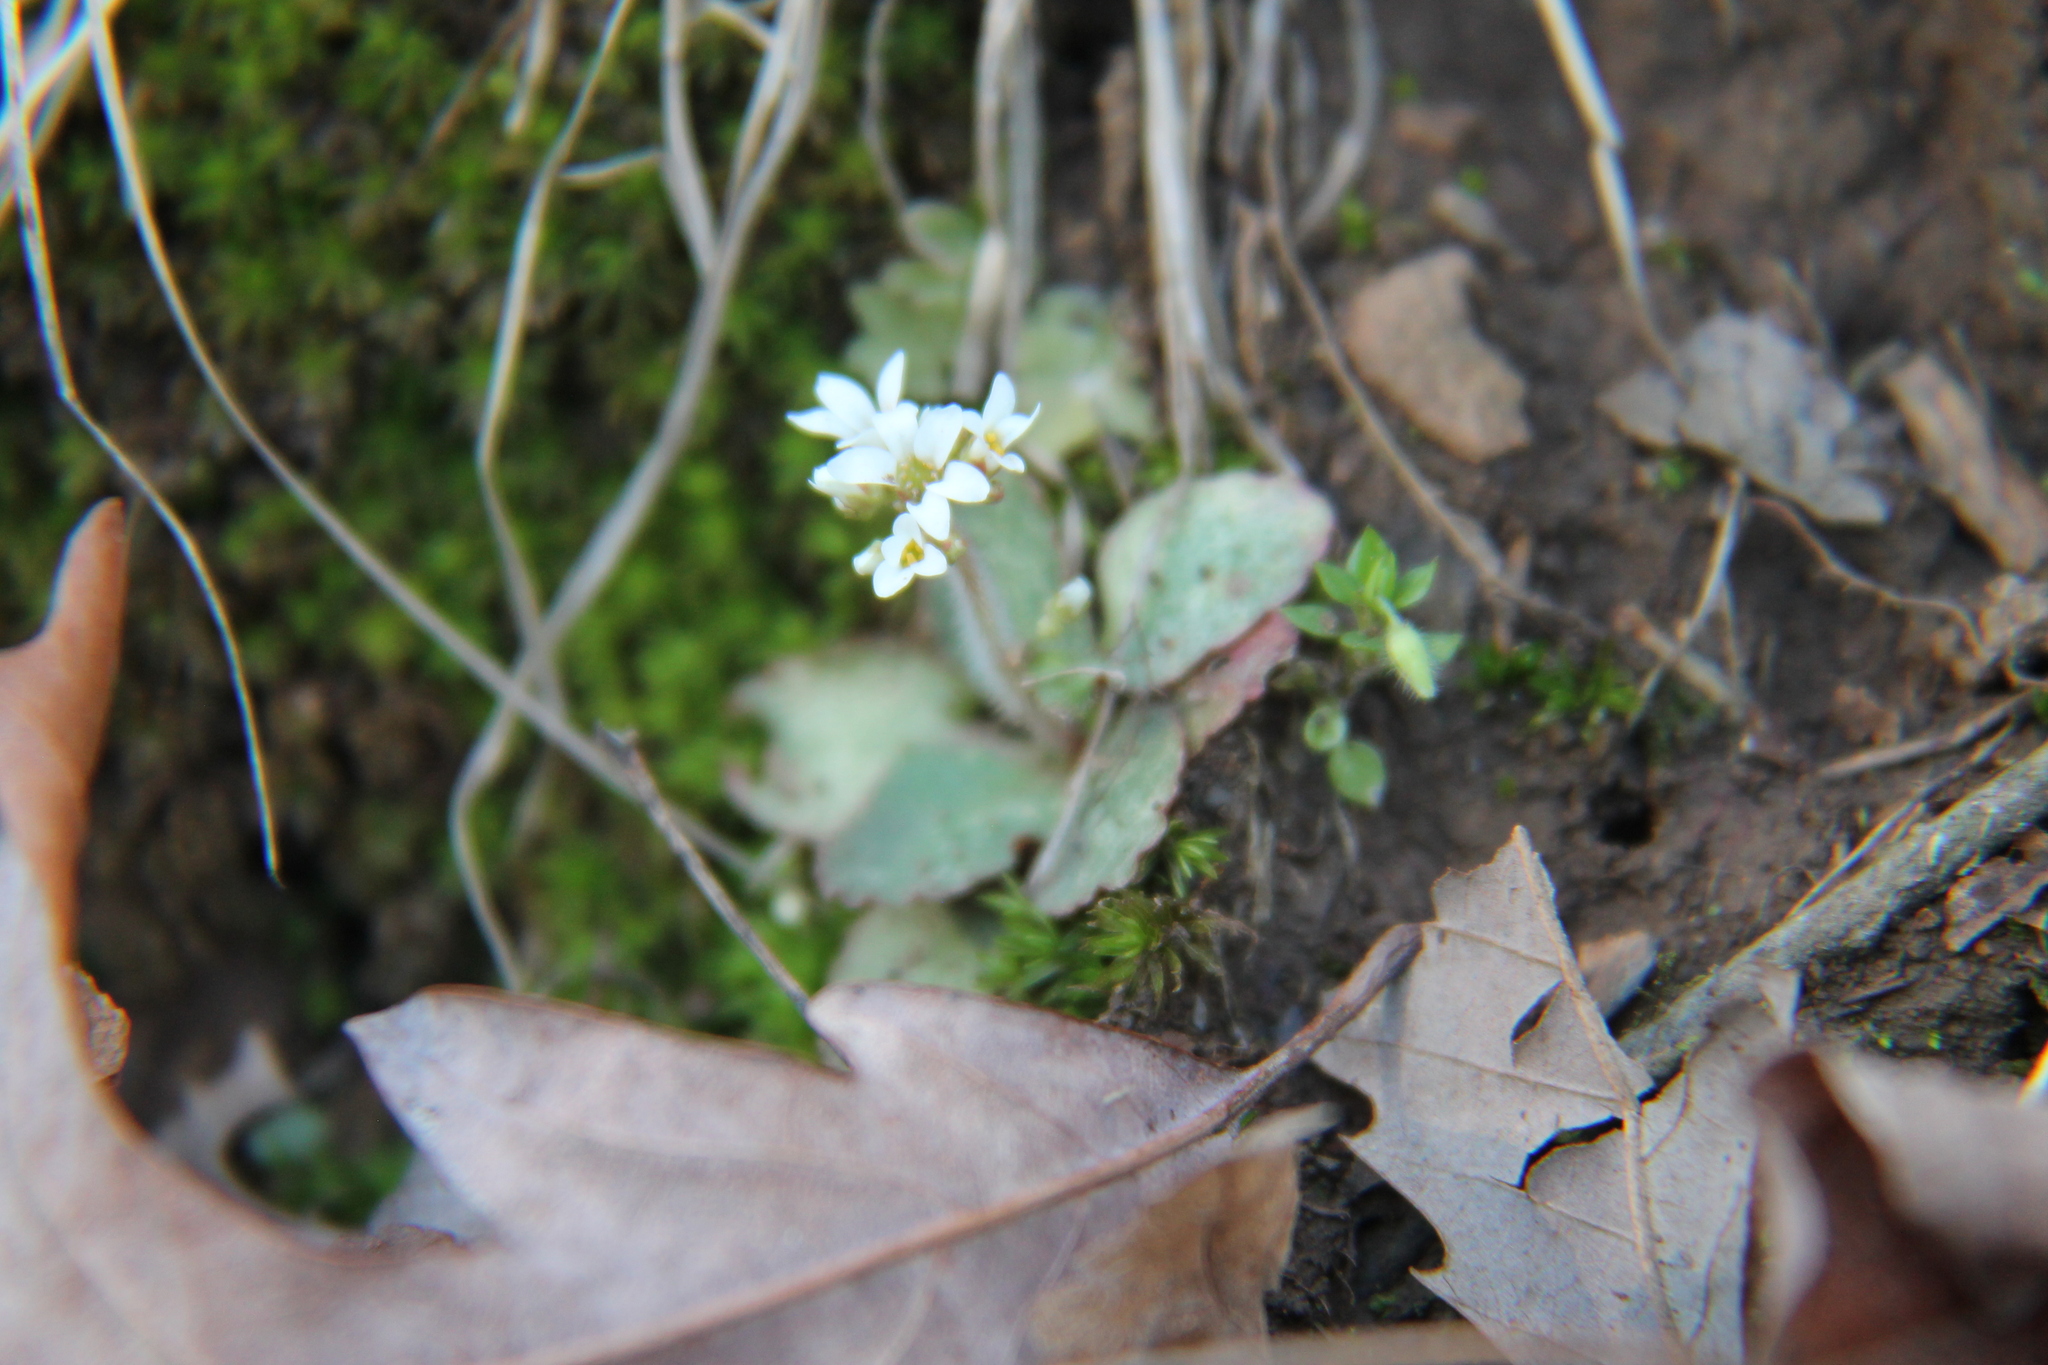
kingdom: Plantae
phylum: Tracheophyta
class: Magnoliopsida
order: Saxifragales
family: Saxifragaceae
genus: Micranthes
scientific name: Micranthes virginiensis
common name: Early saxifrage
